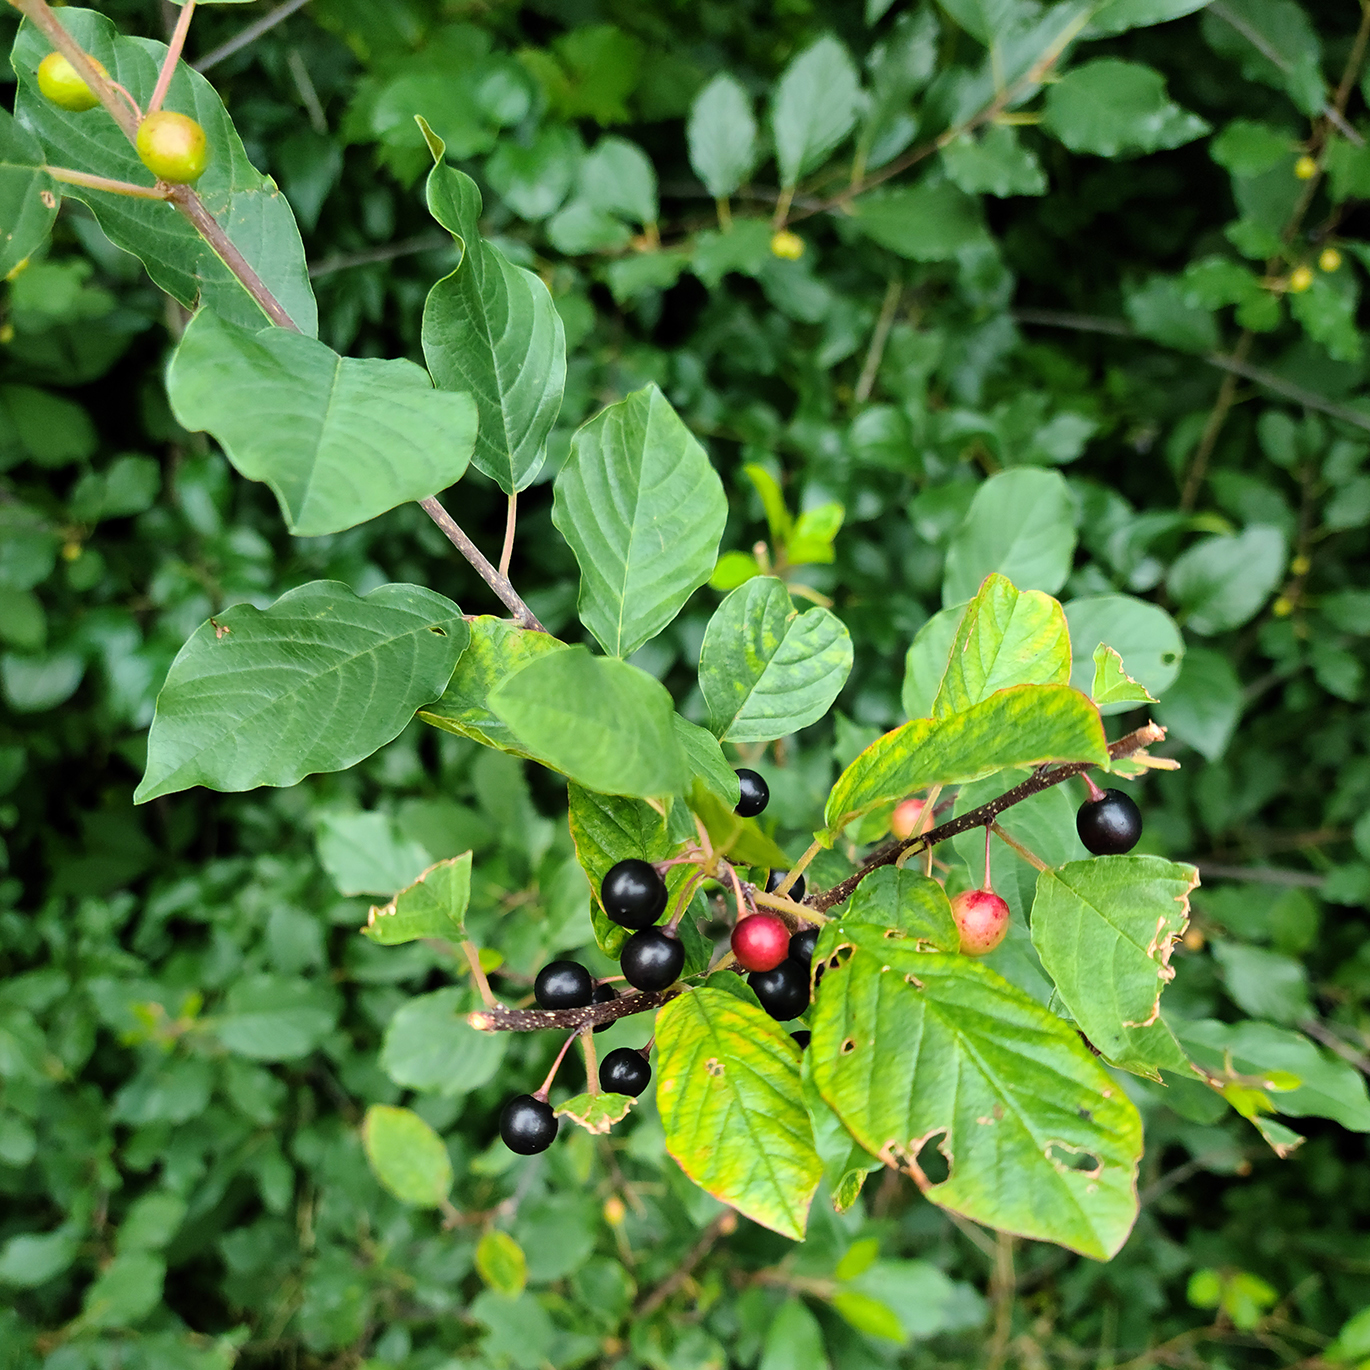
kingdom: Plantae
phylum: Tracheophyta
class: Magnoliopsida
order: Rosales
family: Rhamnaceae
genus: Frangula
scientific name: Frangula alnus
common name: Alder buckthorn
